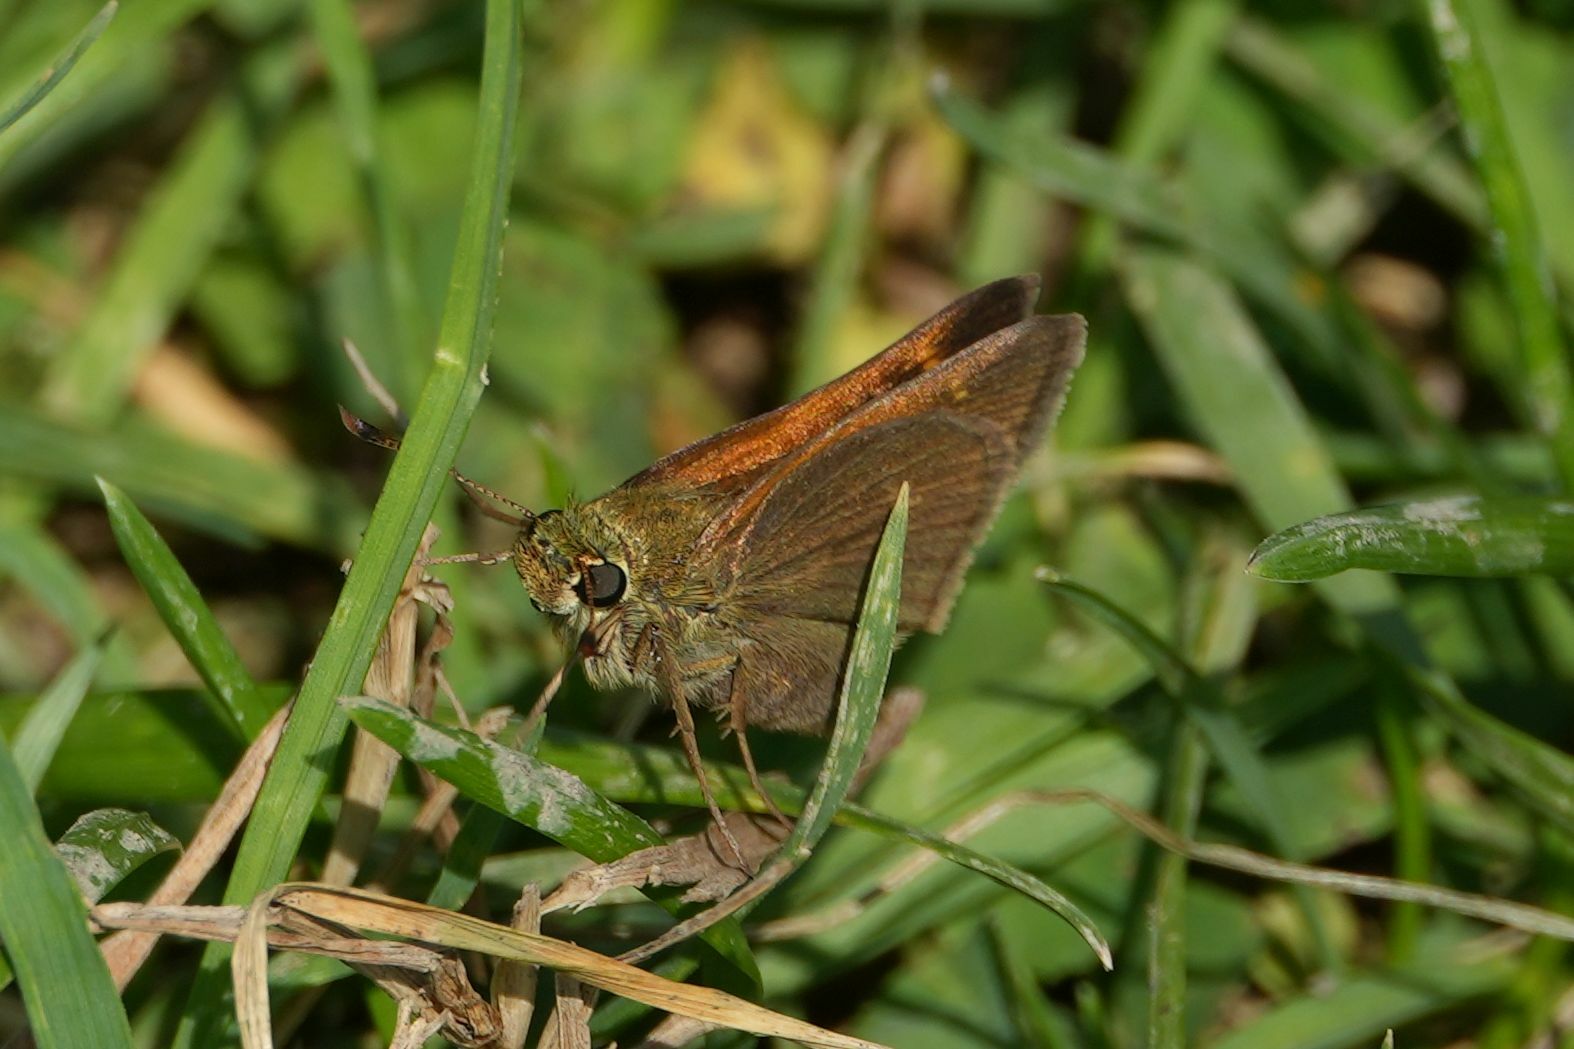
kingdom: Animalia
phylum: Arthropoda
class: Insecta
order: Lepidoptera
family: Hesperiidae
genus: Polites
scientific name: Polites themistocles
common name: Tawny-edged skipper
